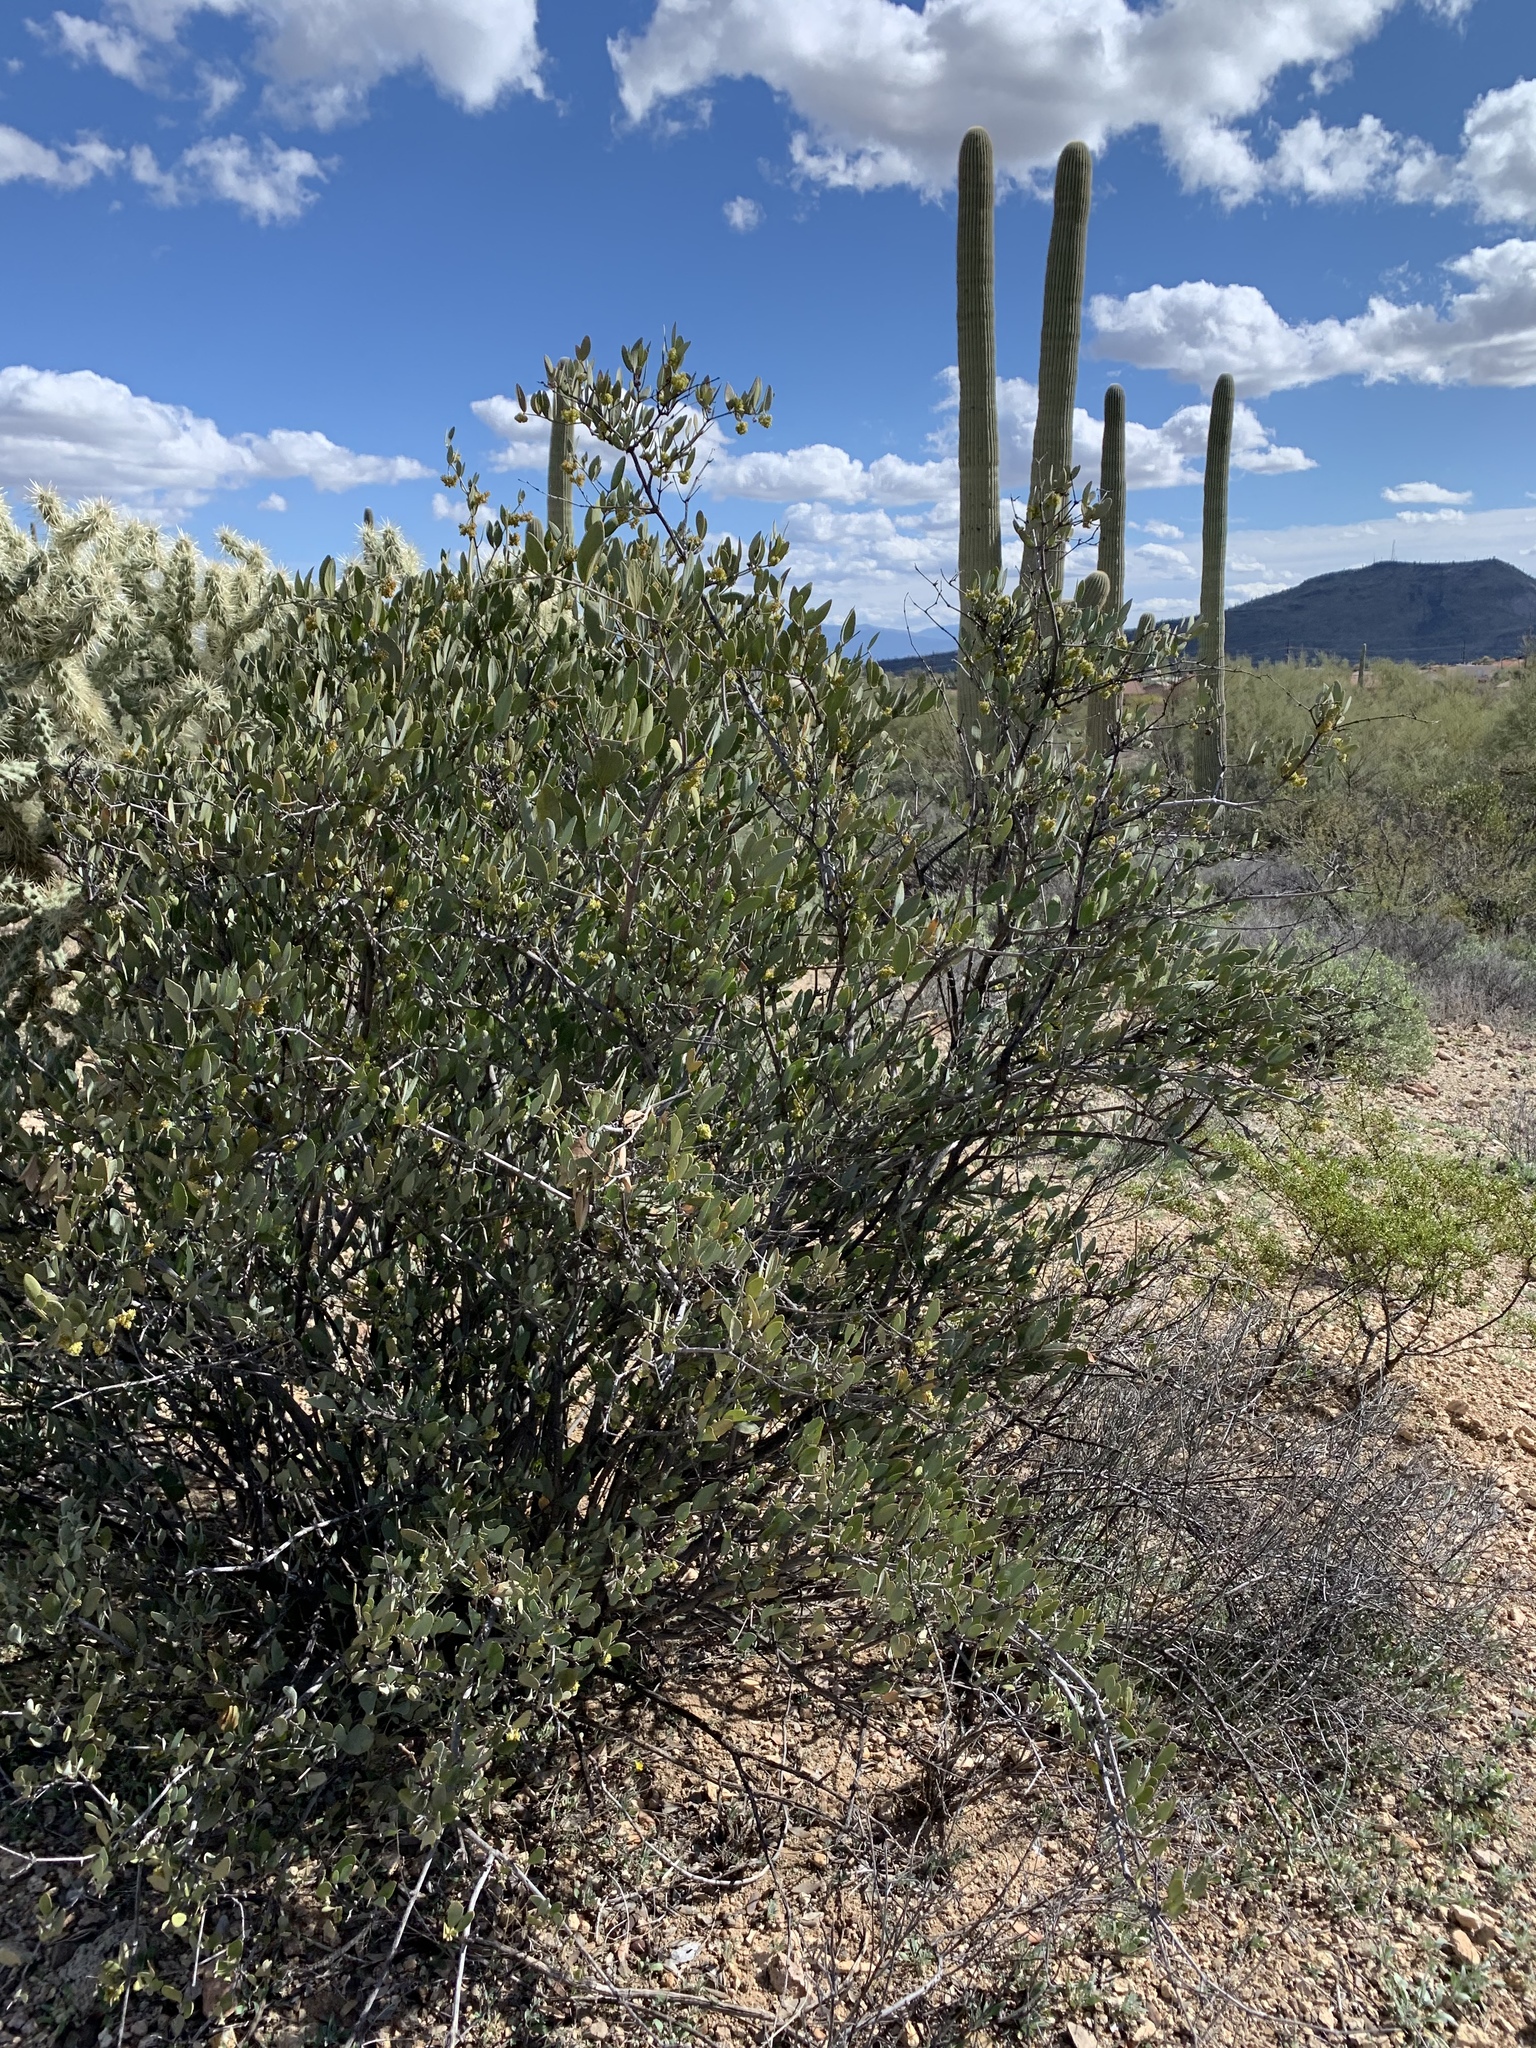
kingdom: Plantae
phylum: Tracheophyta
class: Magnoliopsida
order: Caryophyllales
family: Simmondsiaceae
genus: Simmondsia
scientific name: Simmondsia chinensis
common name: Jojoba
